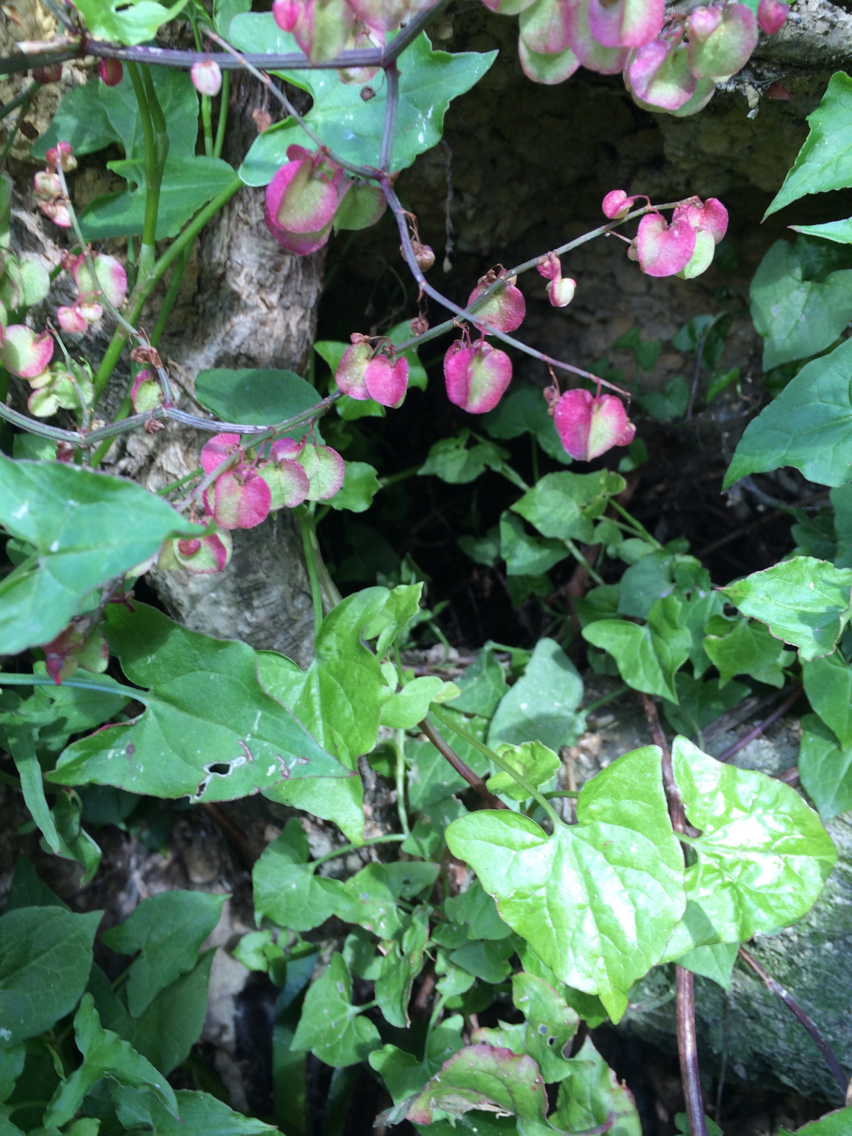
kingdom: Plantae
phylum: Tracheophyta
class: Magnoliopsida
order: Caryophyllales
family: Polygonaceae
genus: Rumex
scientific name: Rumex sagittatus
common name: Climbing dock
